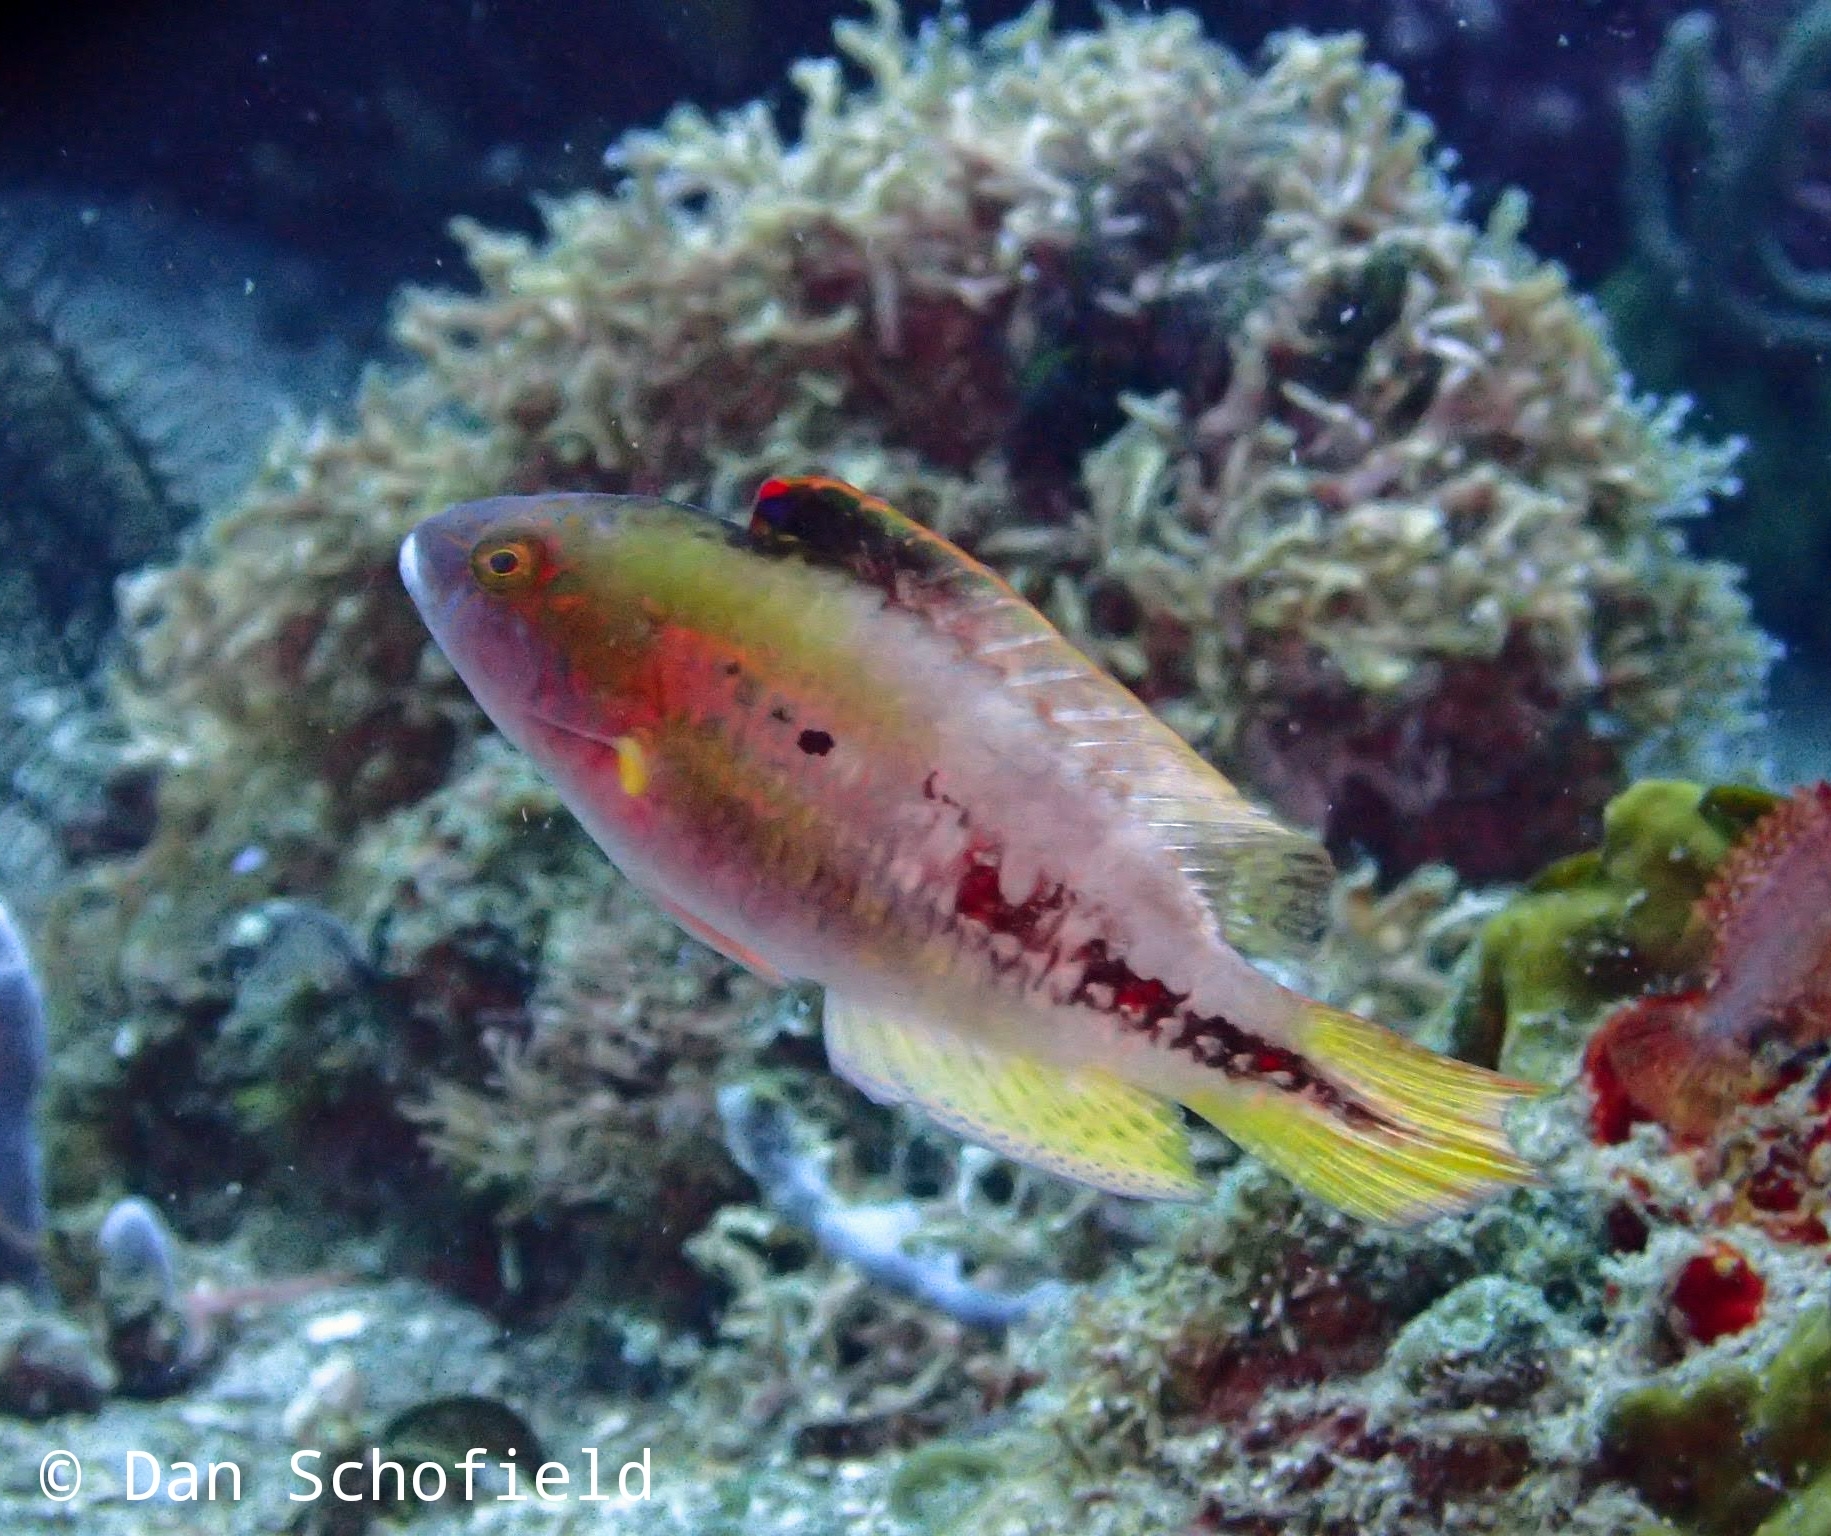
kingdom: Animalia
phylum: Chordata
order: Perciformes
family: Labridae
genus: Oxycheilinus
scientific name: Oxycheilinus bimaculatus
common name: Comettailed wrasse
